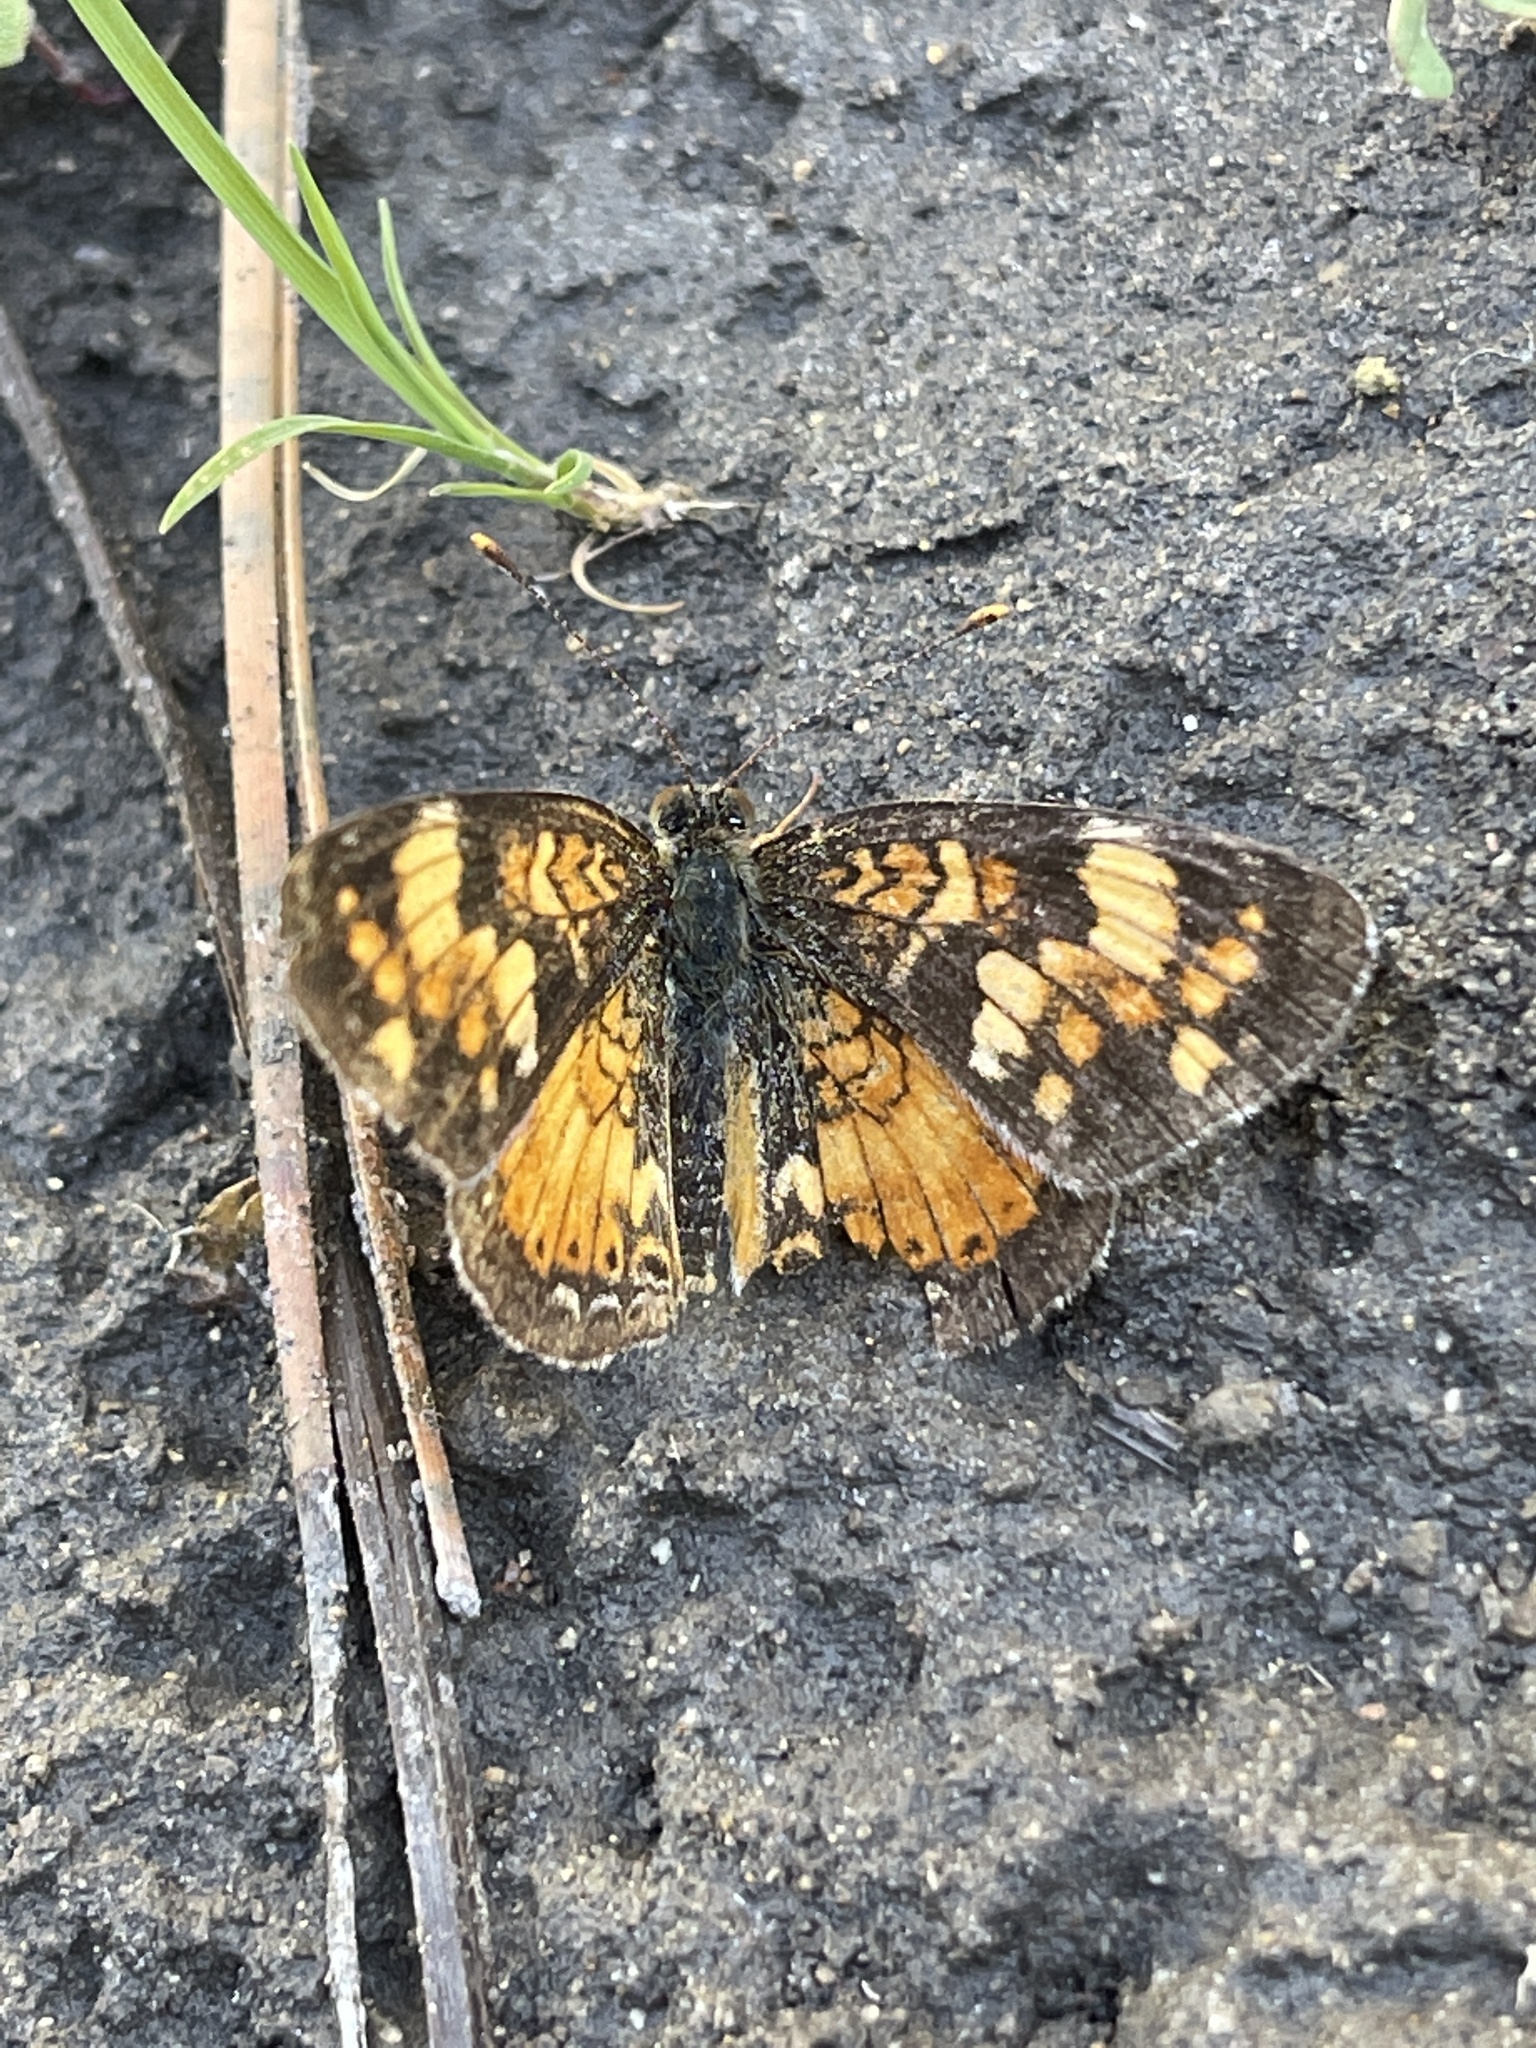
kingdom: Animalia
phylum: Arthropoda
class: Insecta
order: Lepidoptera
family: Nymphalidae
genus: Phyciodes
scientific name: Phyciodes batesii
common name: Tawny crescent
